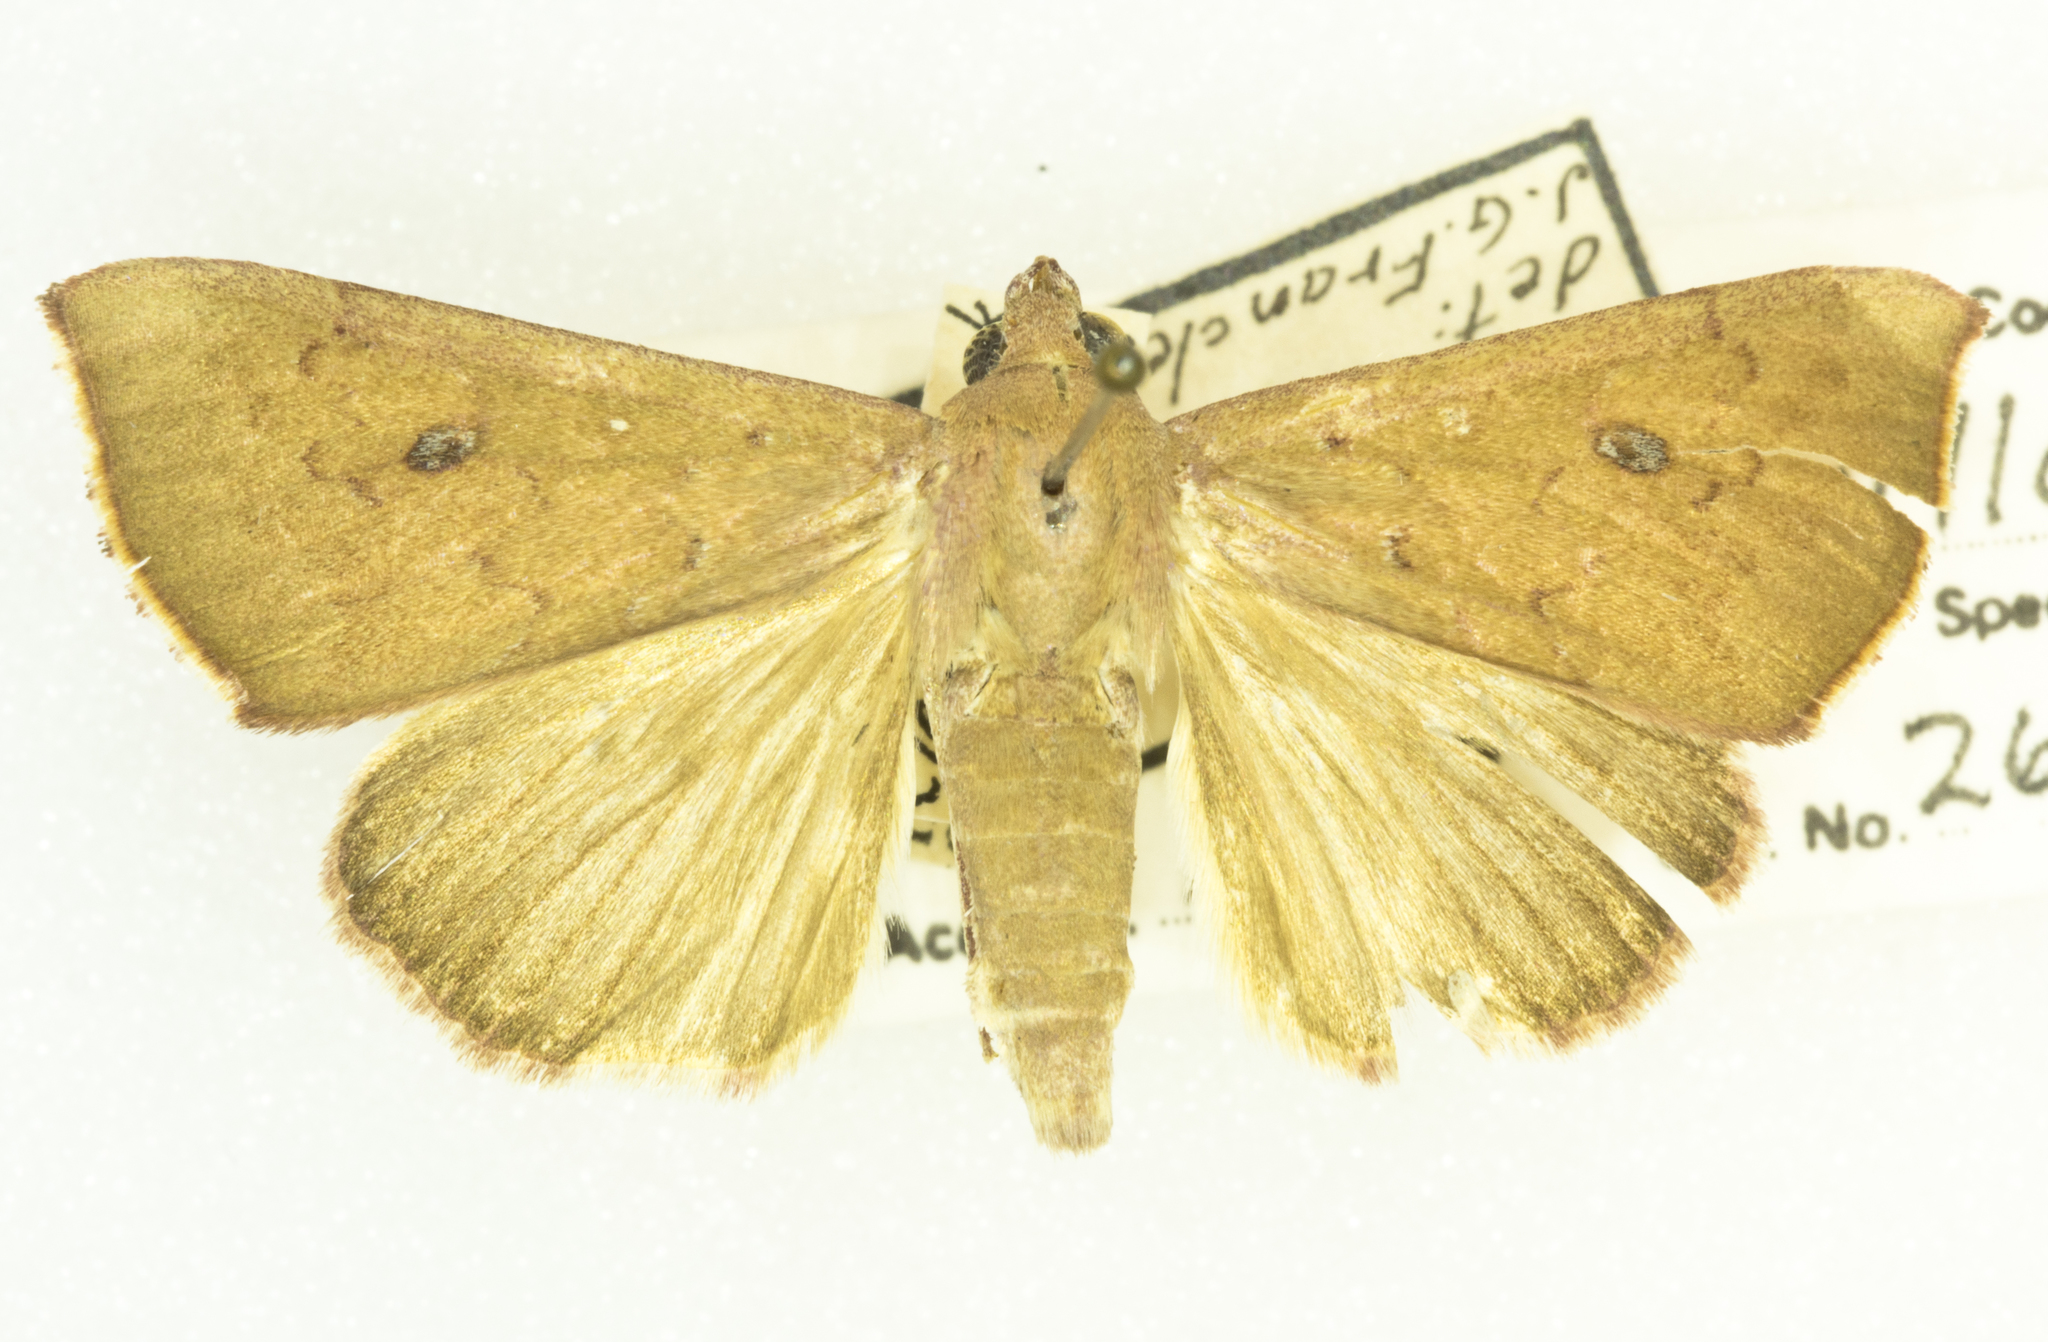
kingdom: Animalia
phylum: Arthropoda
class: Insecta
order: Lepidoptera
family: Erebidae
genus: Anomis
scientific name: Anomis argillacea
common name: Cotton leafworm
